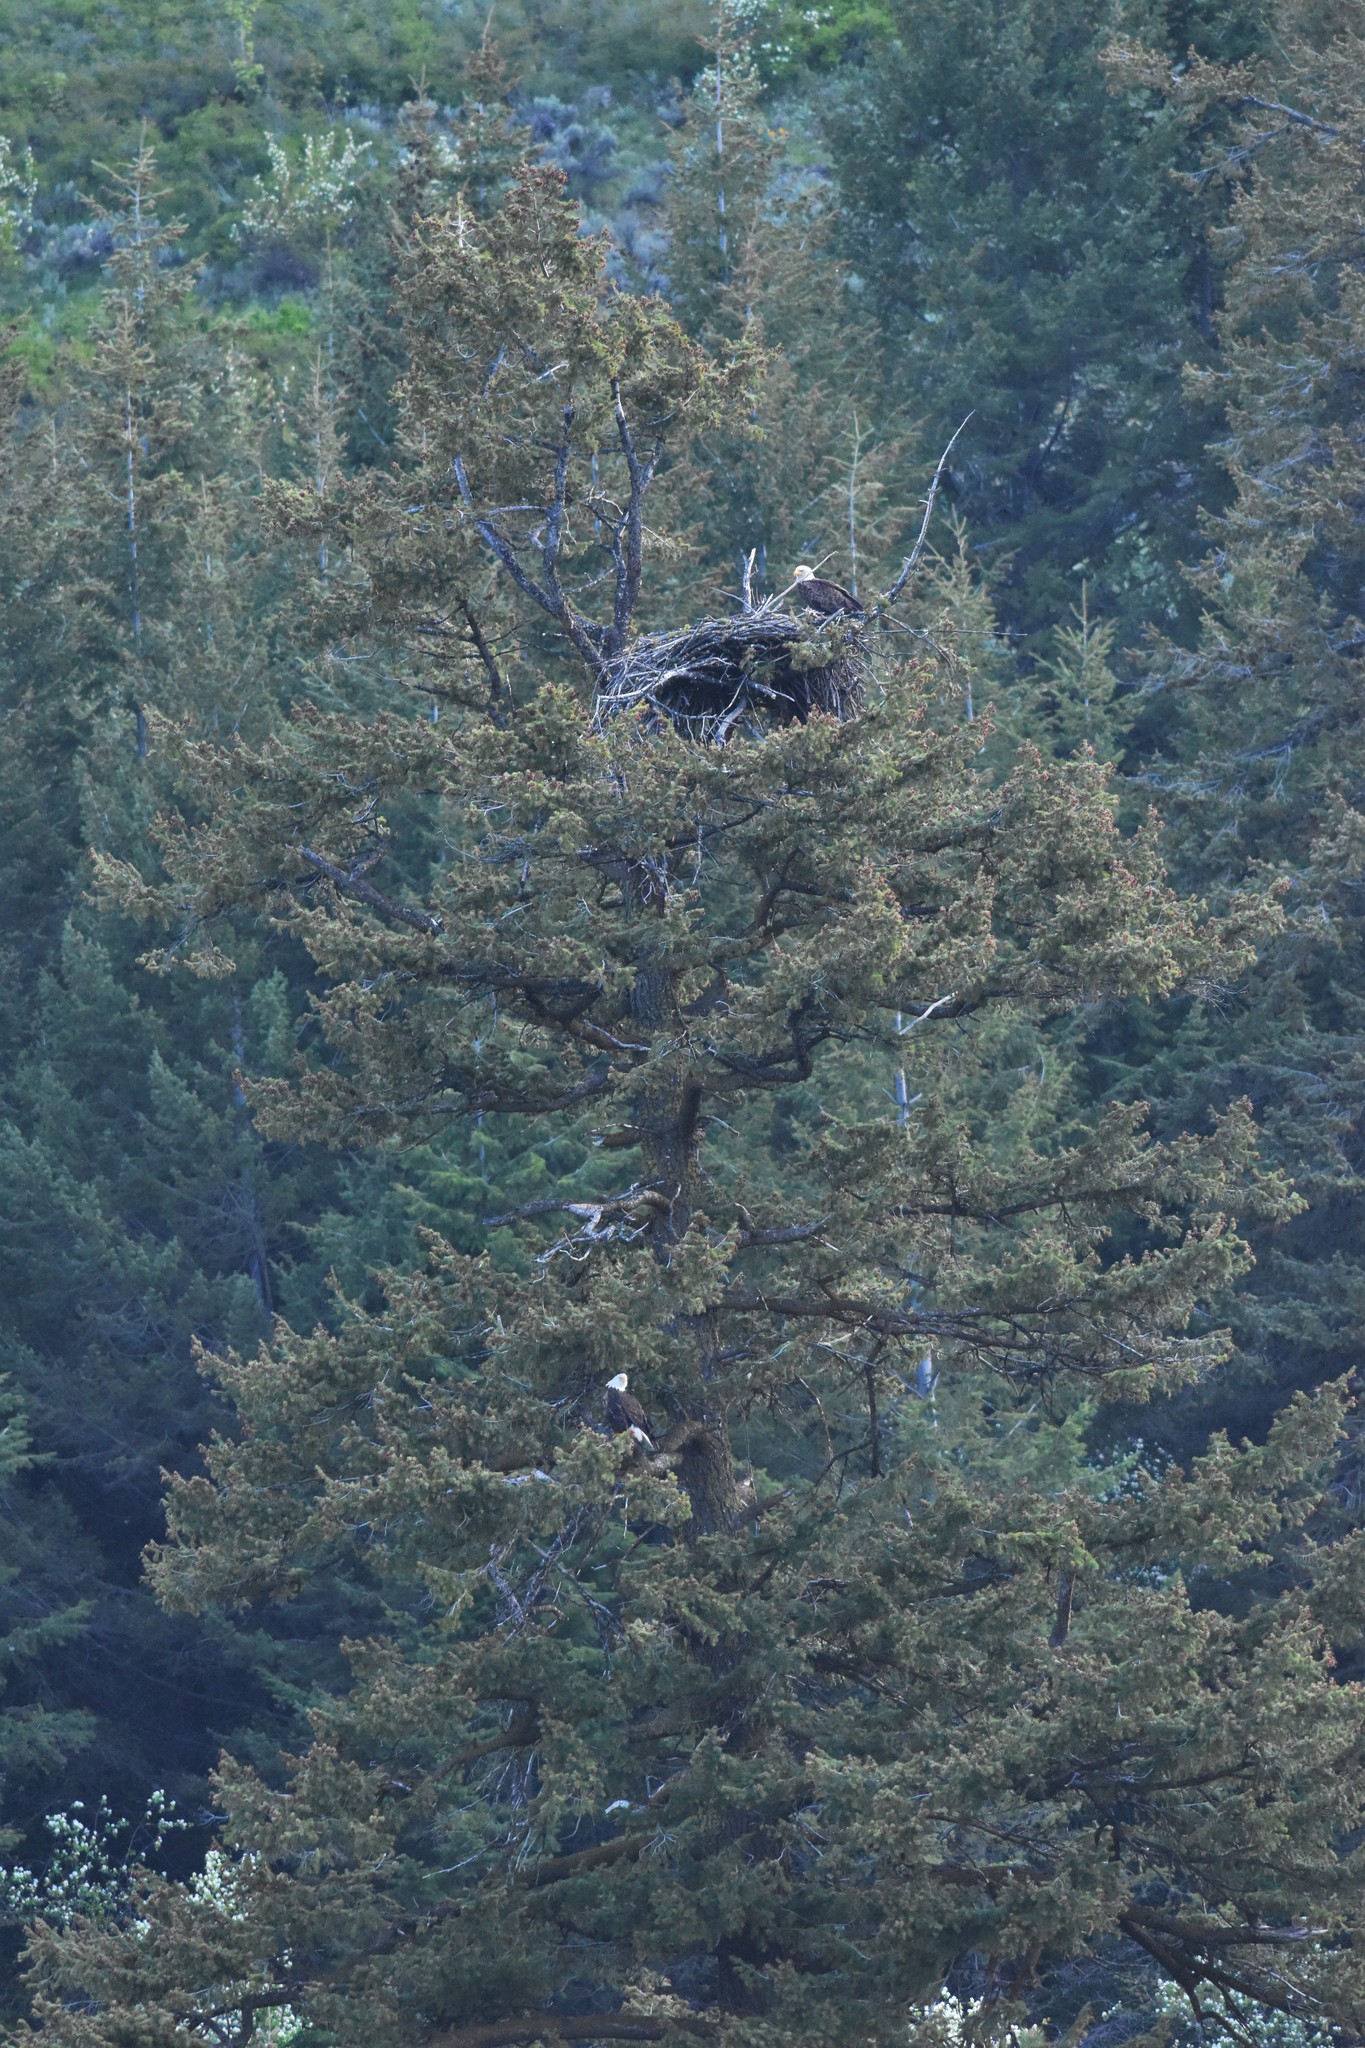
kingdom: Animalia
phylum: Chordata
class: Aves
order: Accipitriformes
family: Accipitridae
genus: Haliaeetus
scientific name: Haliaeetus leucocephalus
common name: Bald eagle
